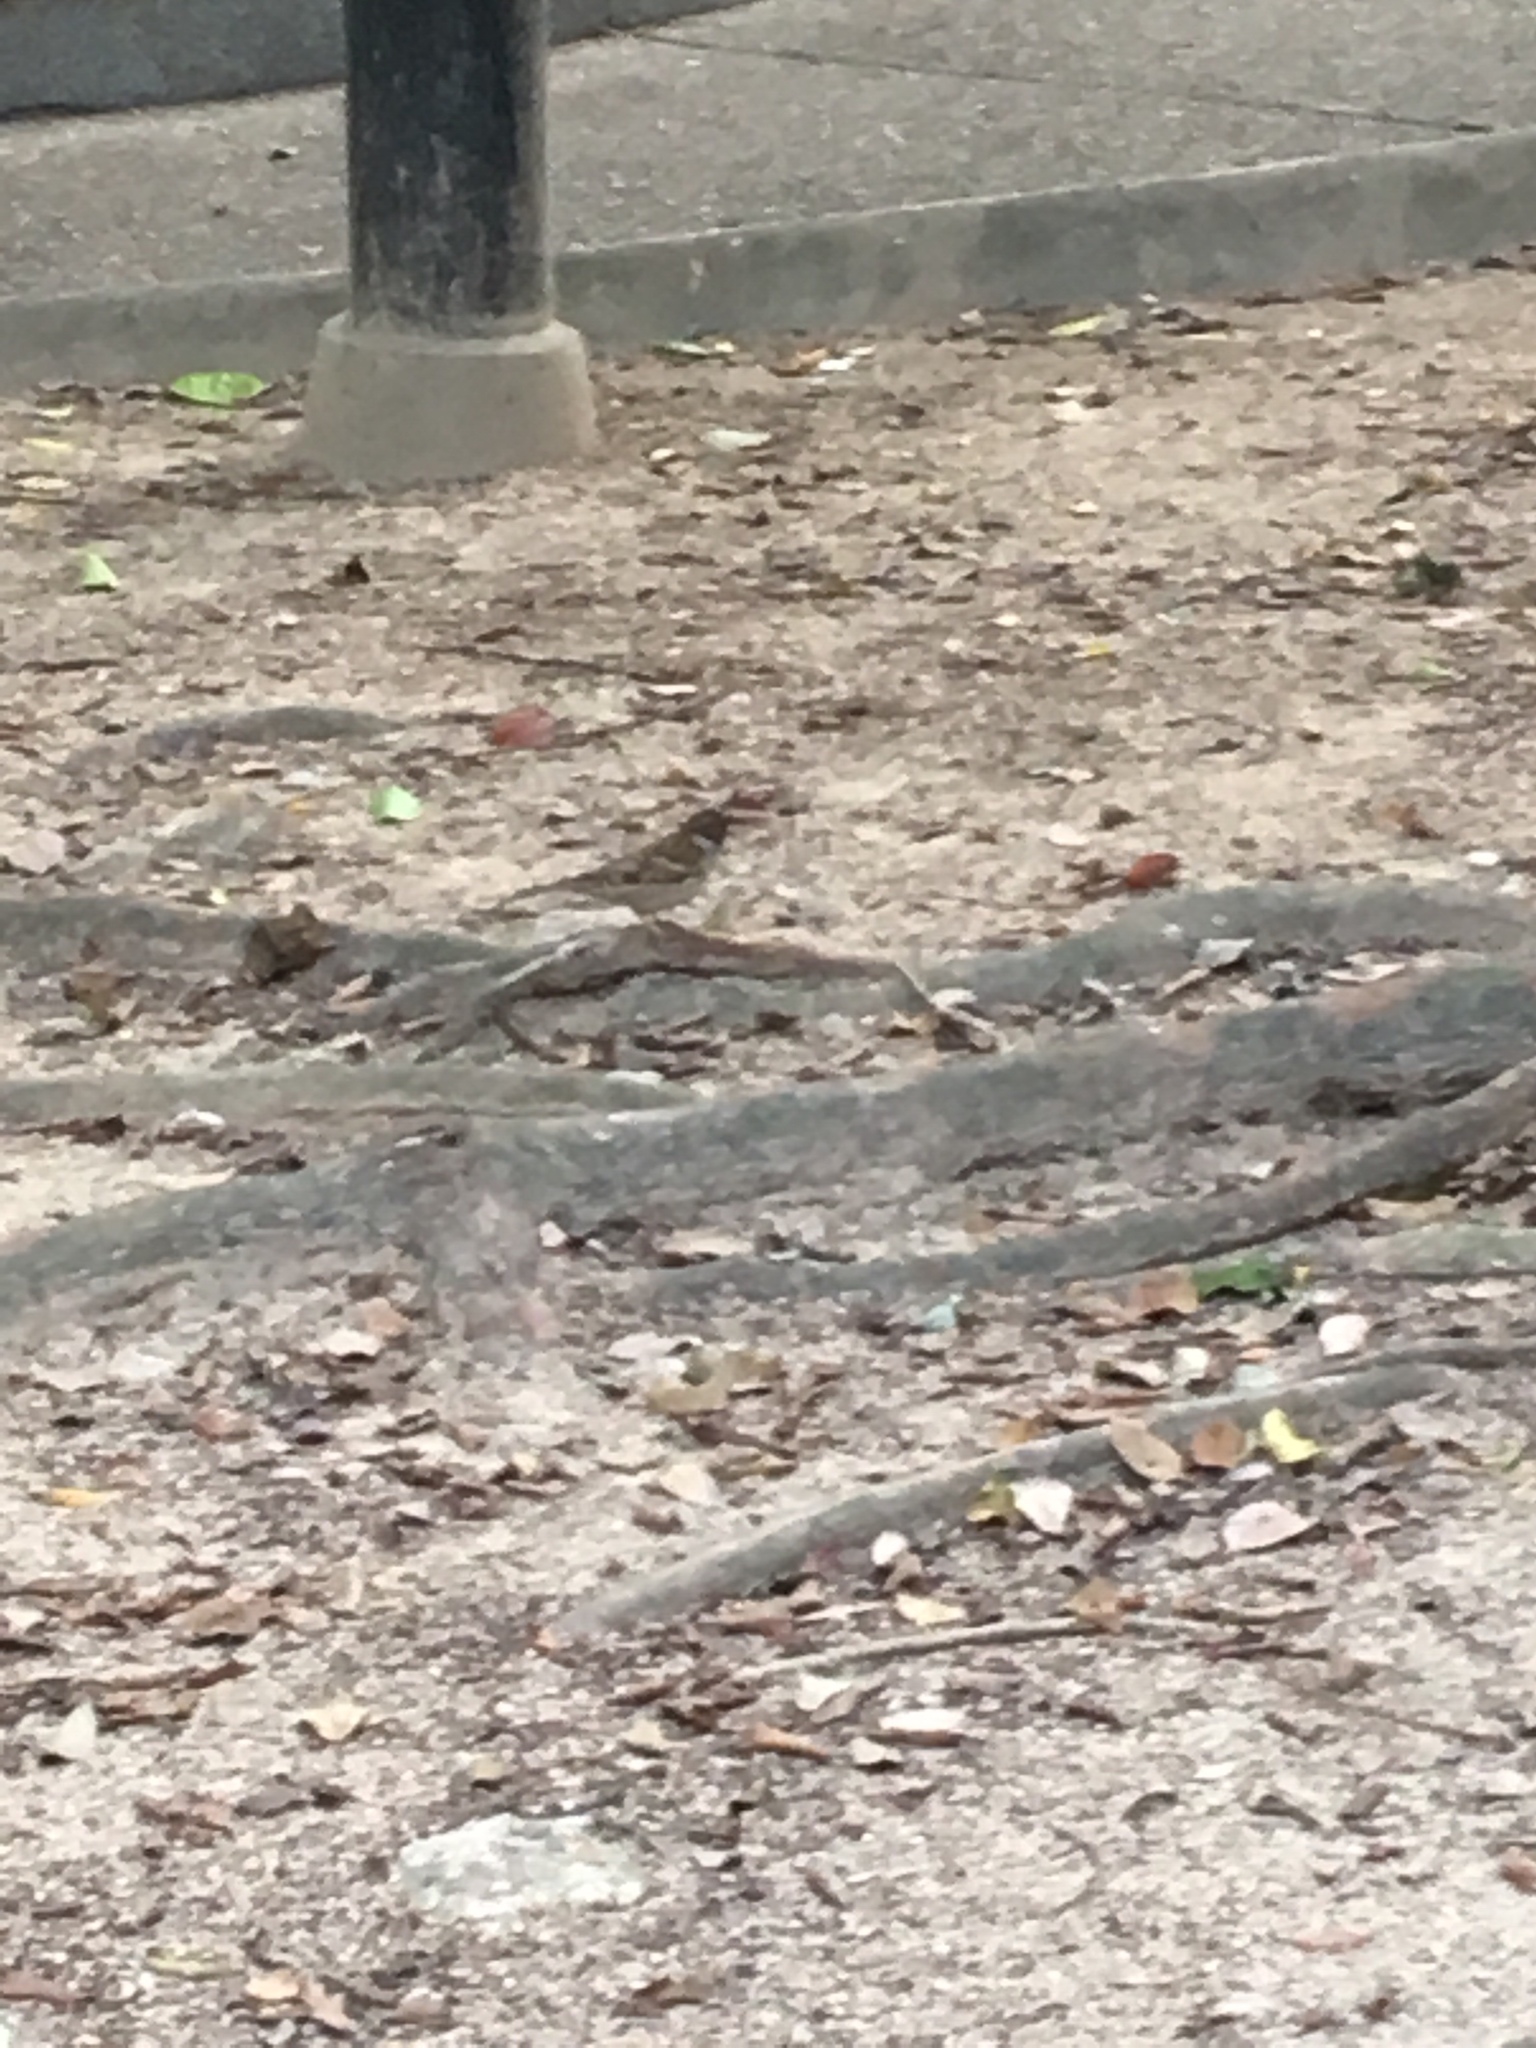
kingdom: Animalia
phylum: Chordata
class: Aves
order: Passeriformes
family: Passeridae
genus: Passer
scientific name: Passer montanus
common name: Eurasian tree sparrow
